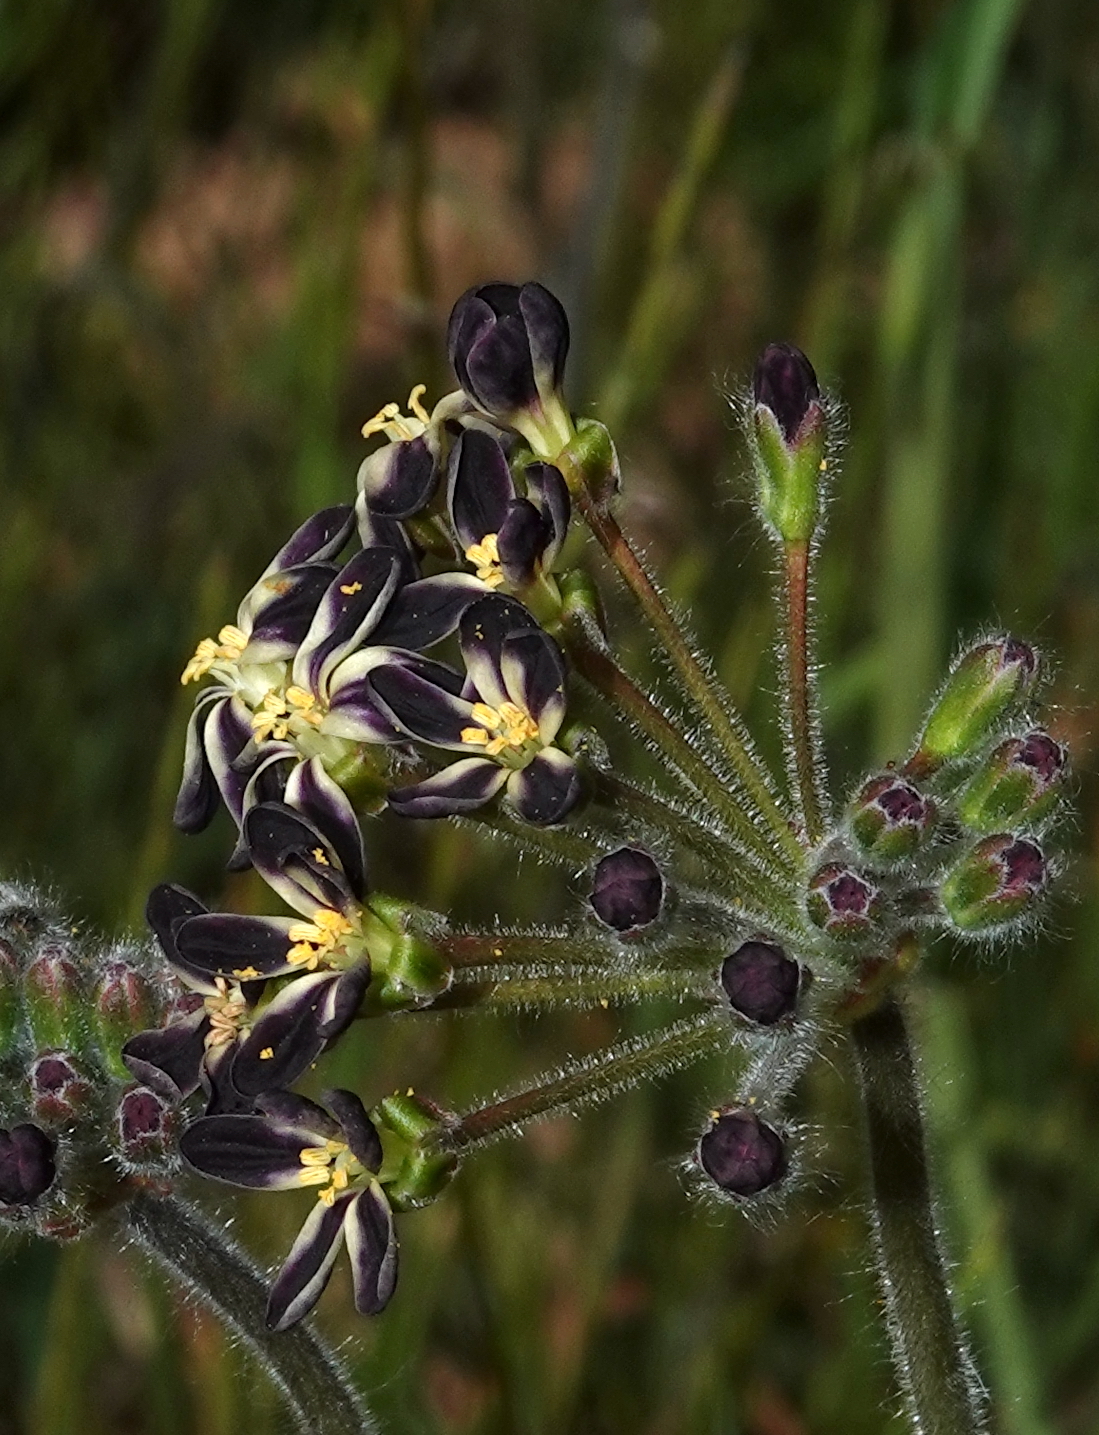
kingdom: Plantae
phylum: Tracheophyta
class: Magnoliopsida
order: Geraniales
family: Geraniaceae
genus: Pelargonium
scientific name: Pelargonium lobatum
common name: Vine-leaf pelargonium
